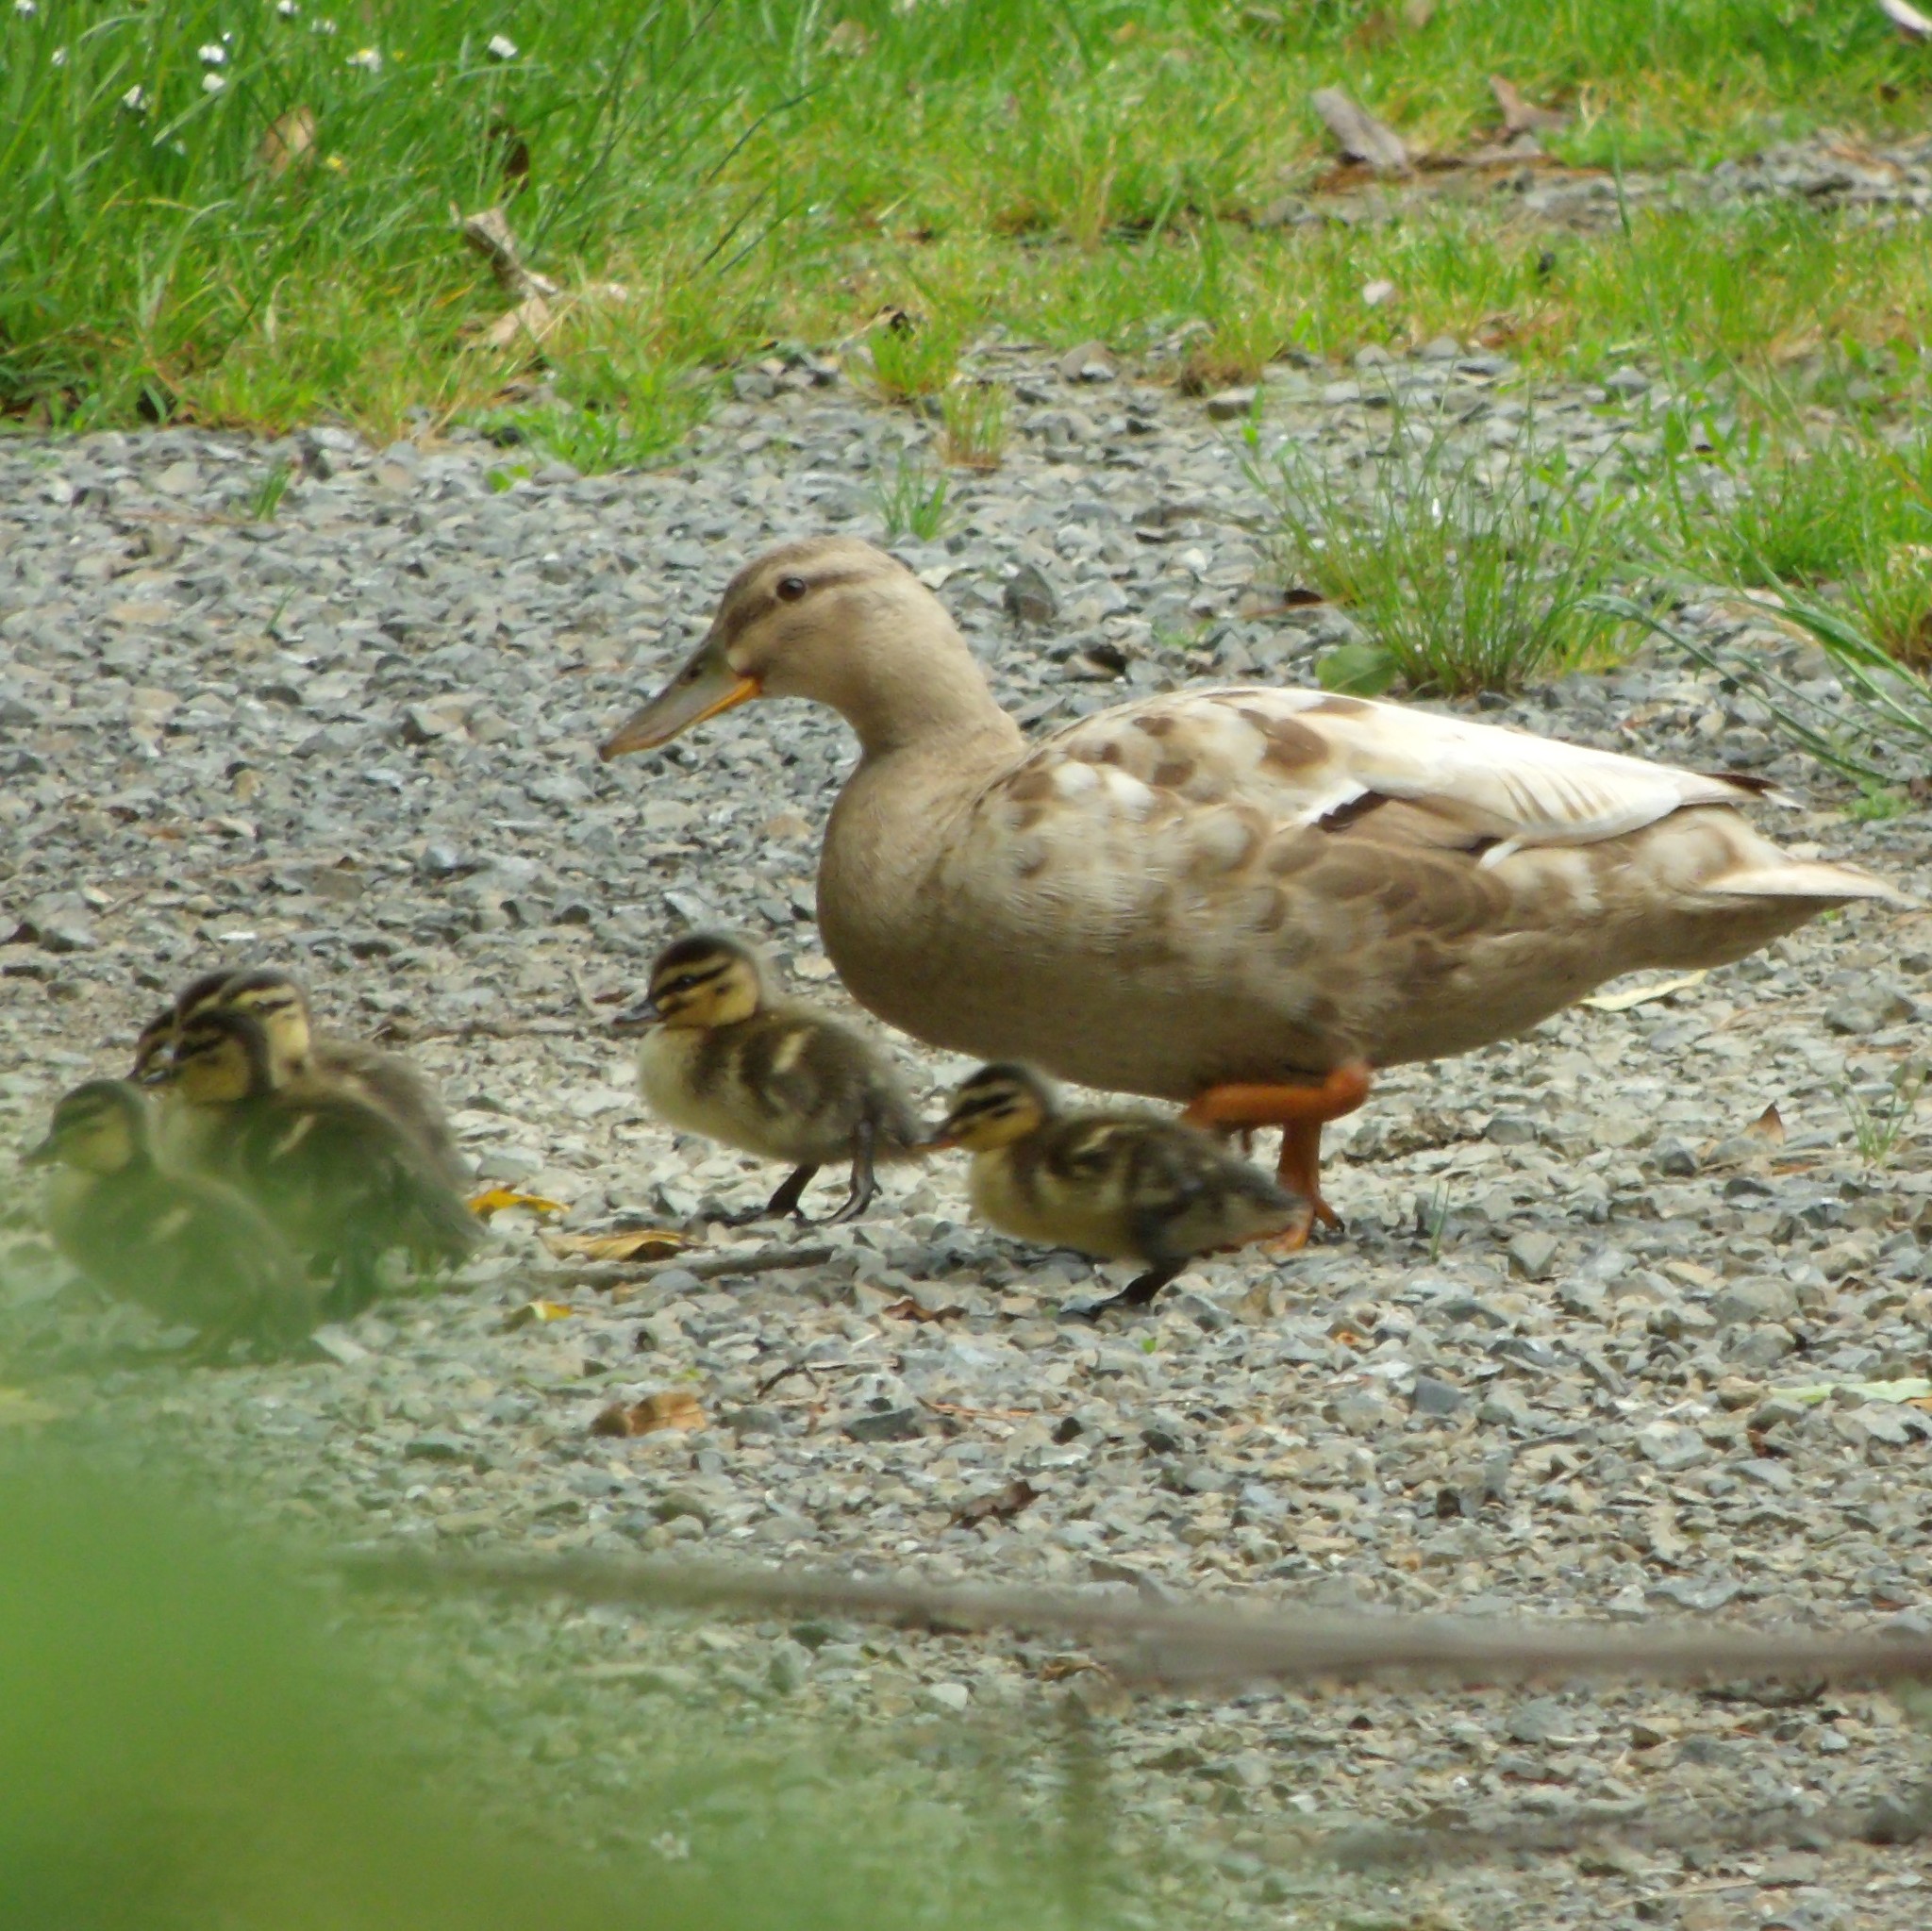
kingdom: Animalia
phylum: Chordata
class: Aves
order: Anseriformes
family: Anatidae
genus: Anas
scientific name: Anas platyrhynchos
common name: Mallard
